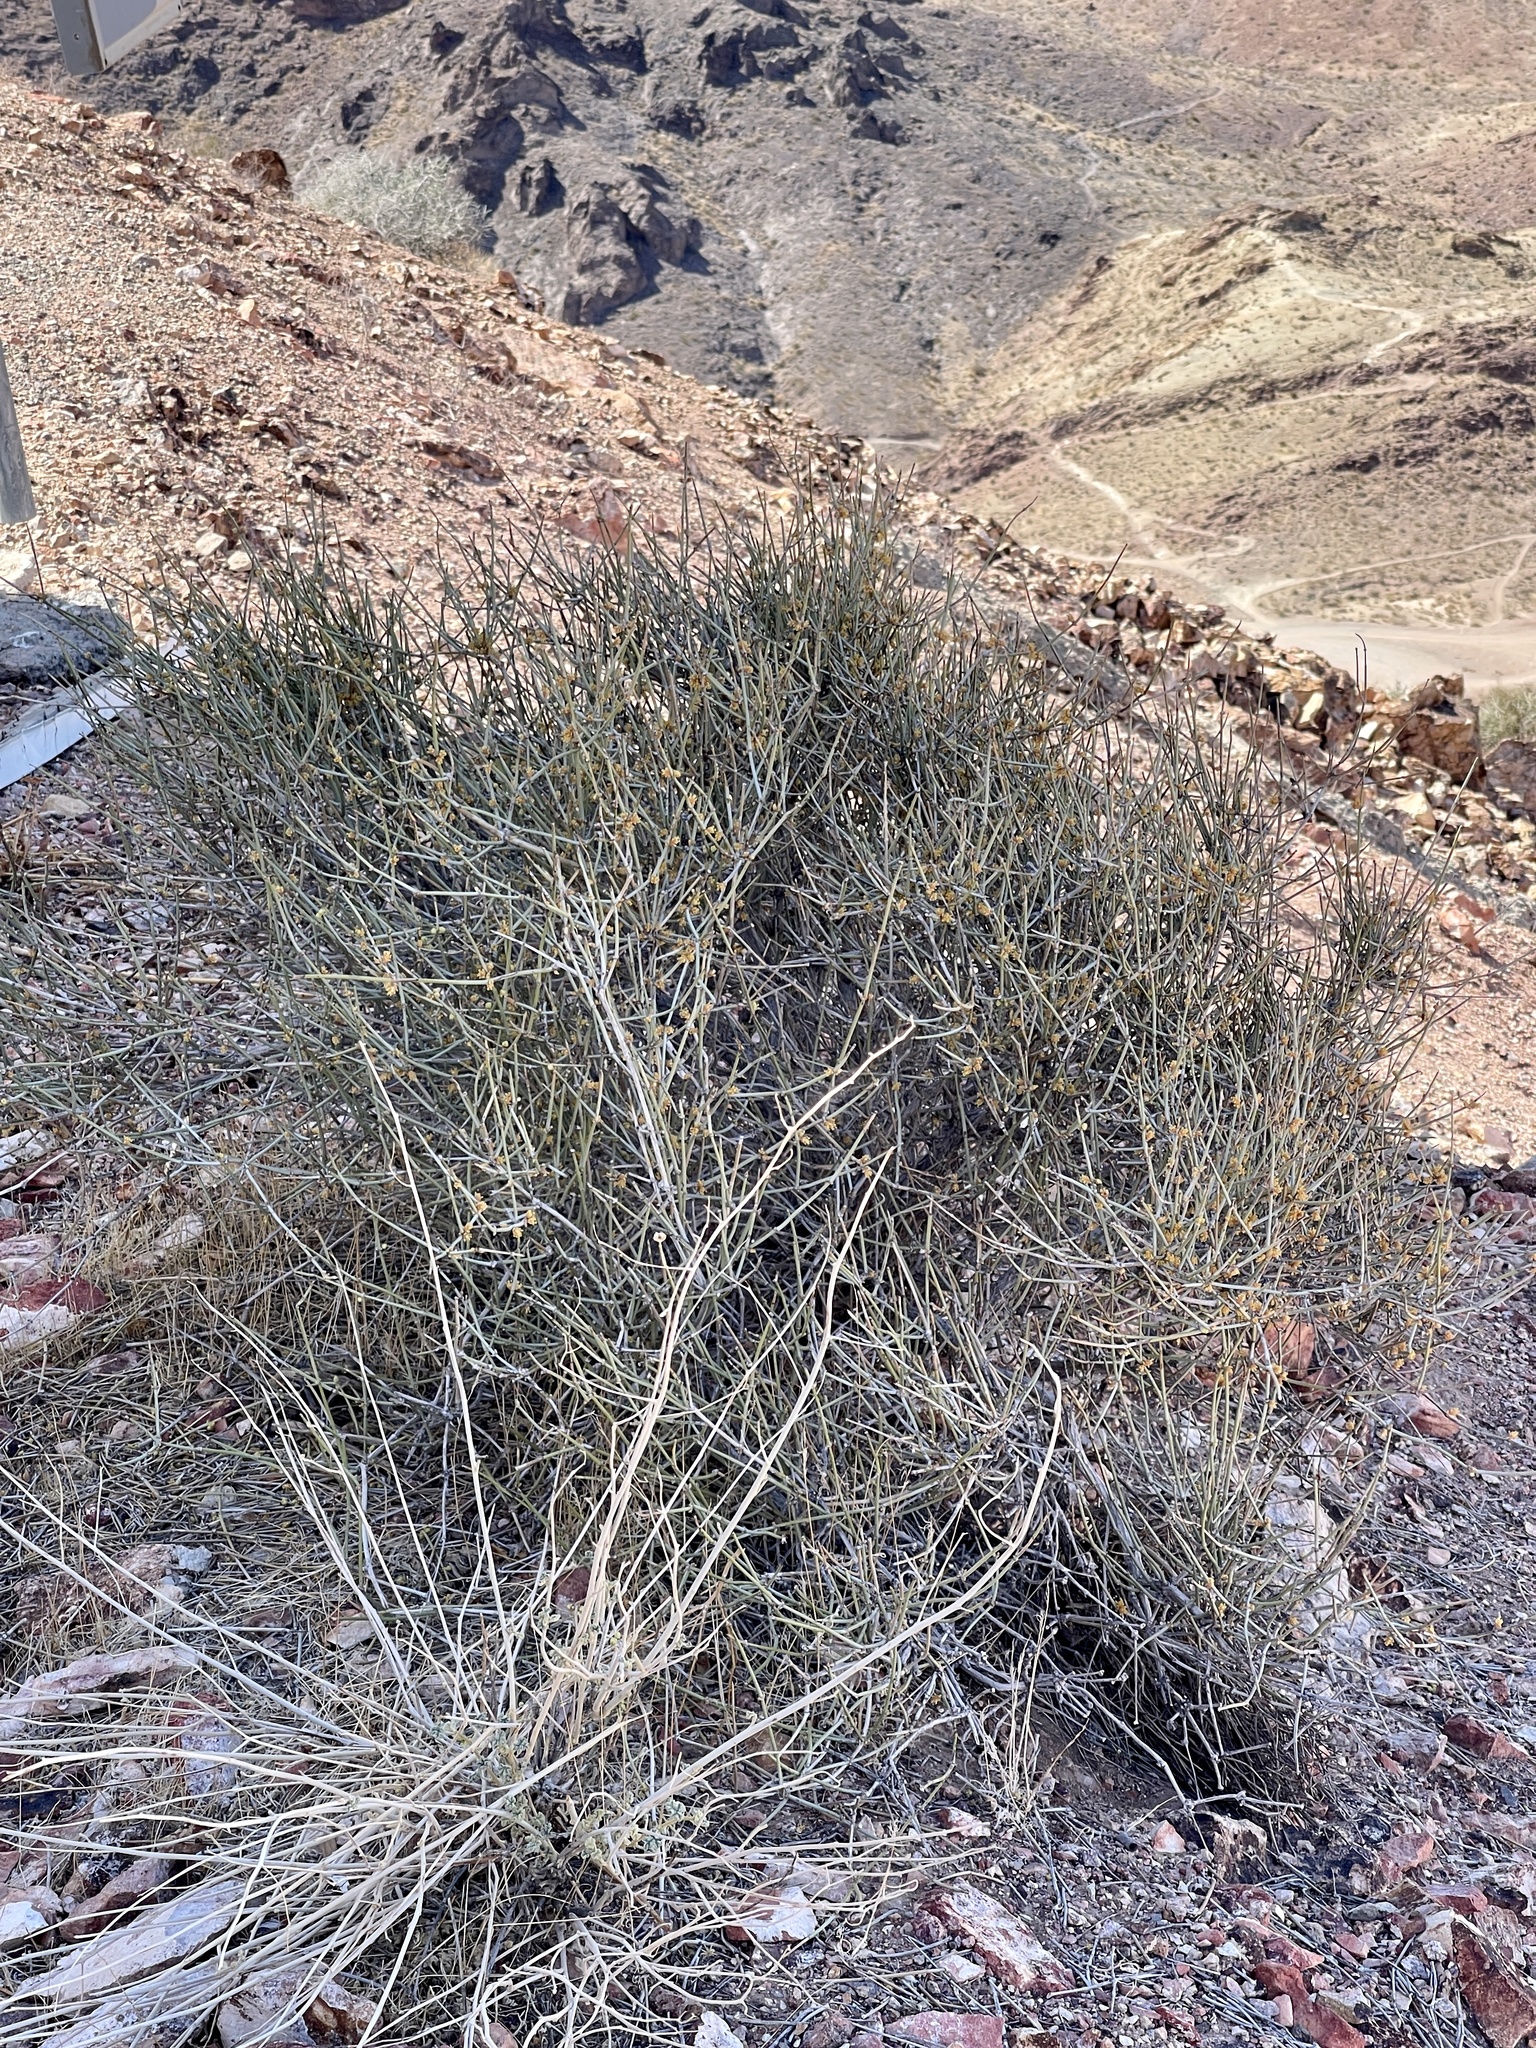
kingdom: Plantae
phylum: Tracheophyta
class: Gnetopsida
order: Ephedrales
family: Ephedraceae
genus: Ephedra
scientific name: Ephedra nevadensis
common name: Gray ephedra
